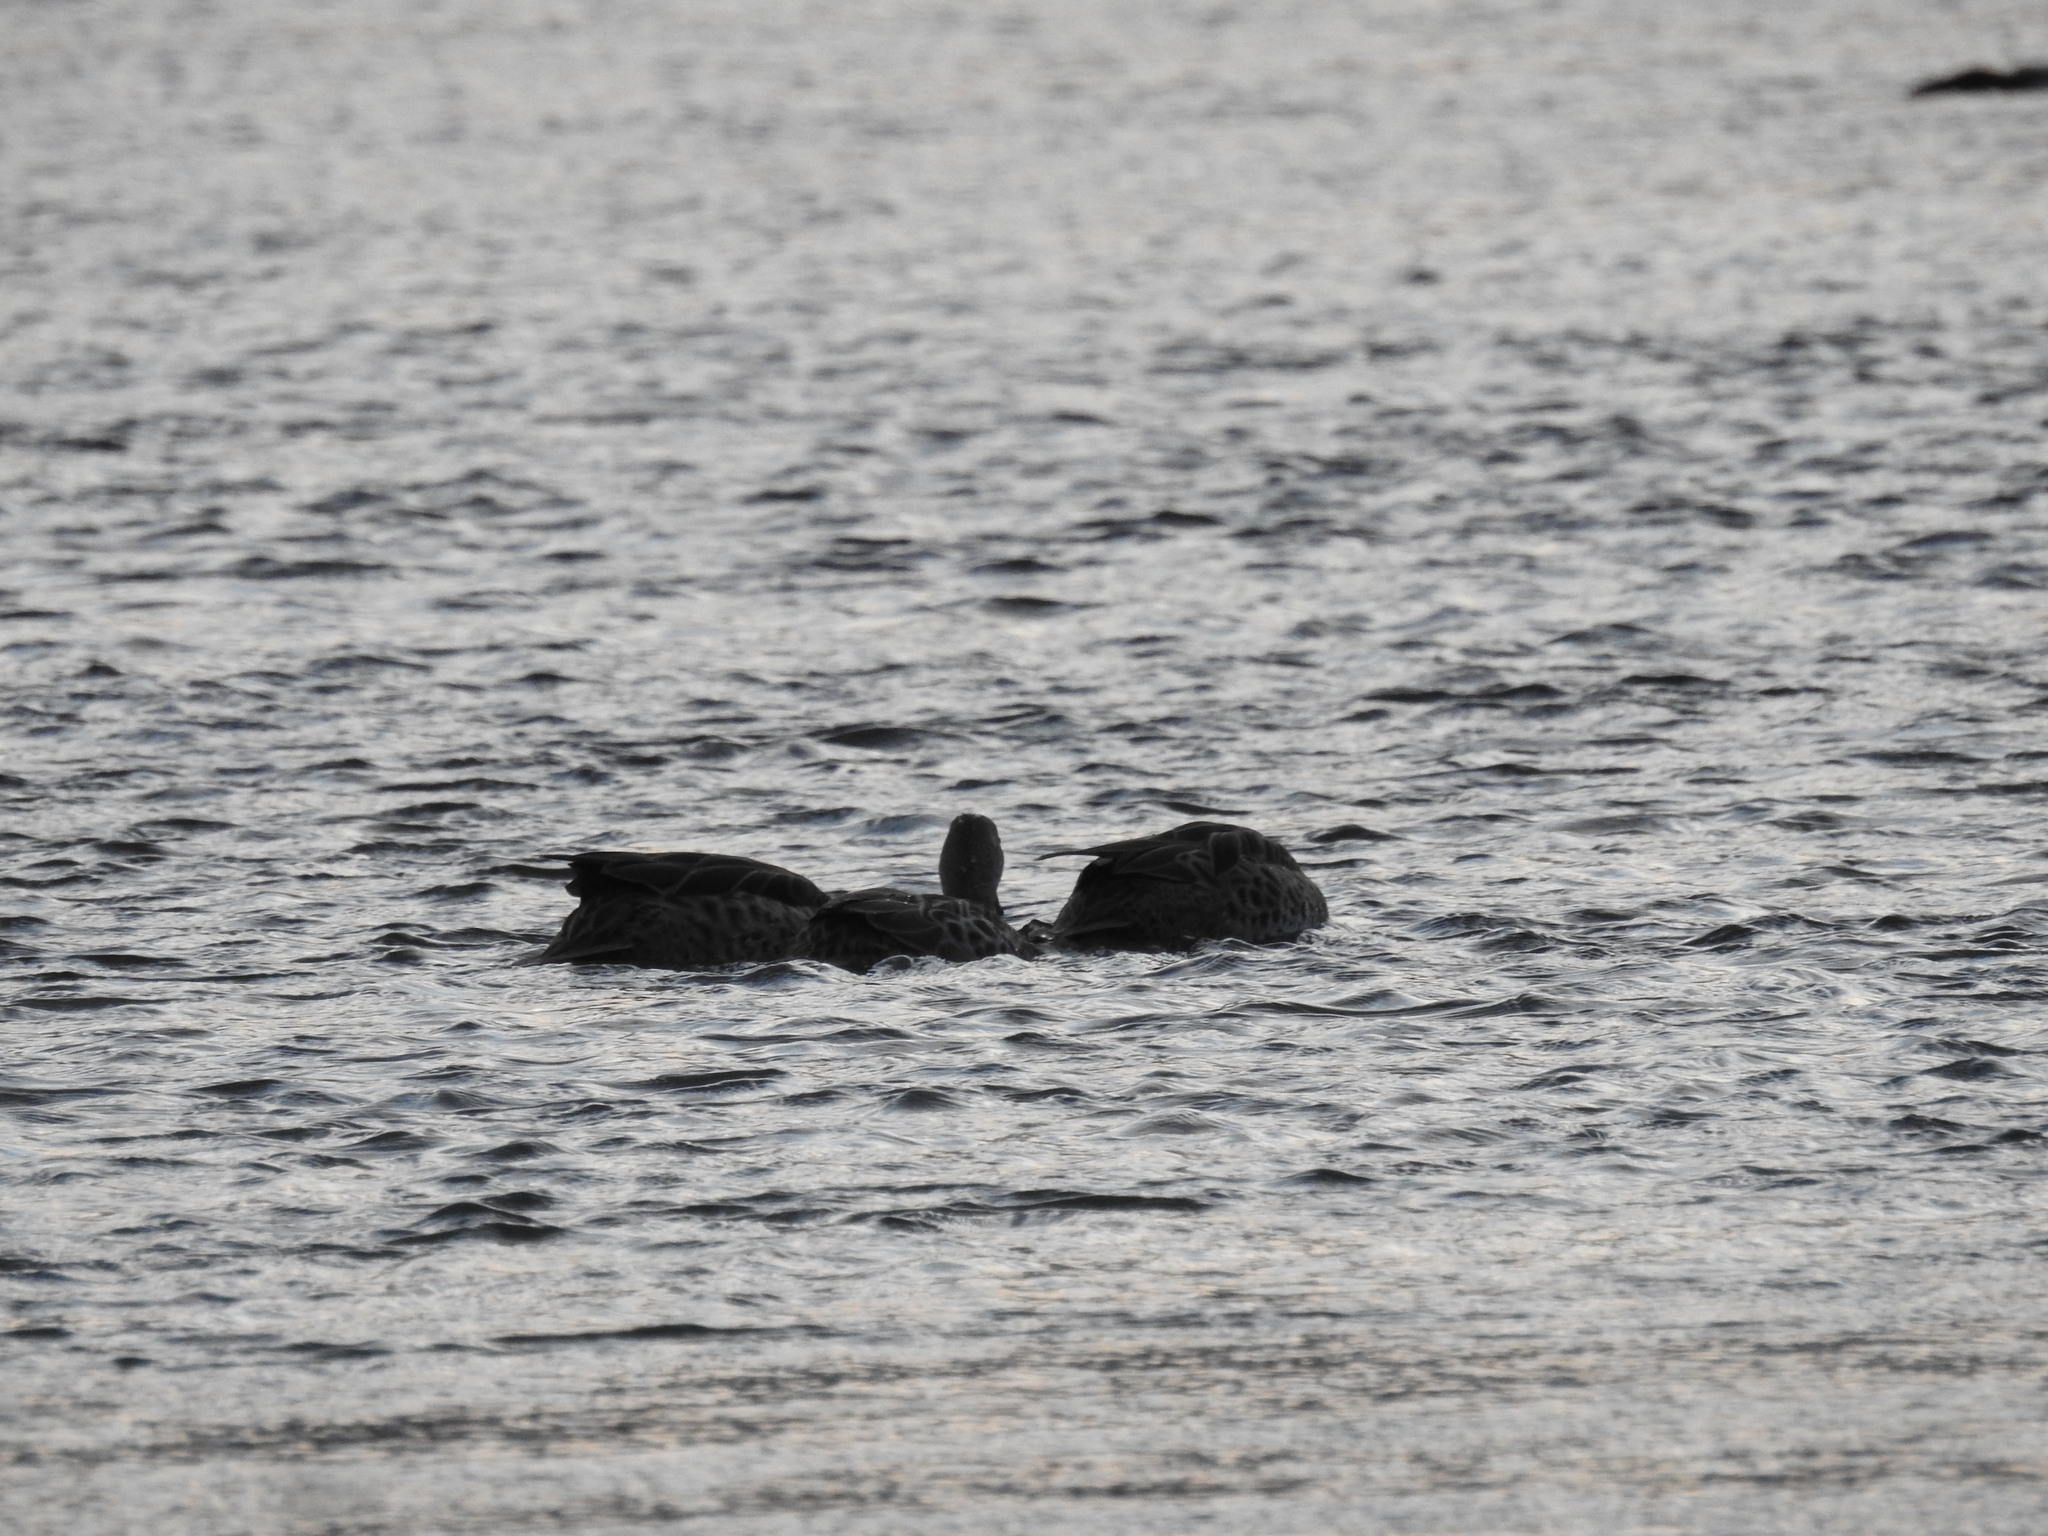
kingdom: Animalia
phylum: Chordata
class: Aves
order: Anseriformes
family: Anatidae
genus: Anas
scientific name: Anas georgica
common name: Yellow-billed pintail
